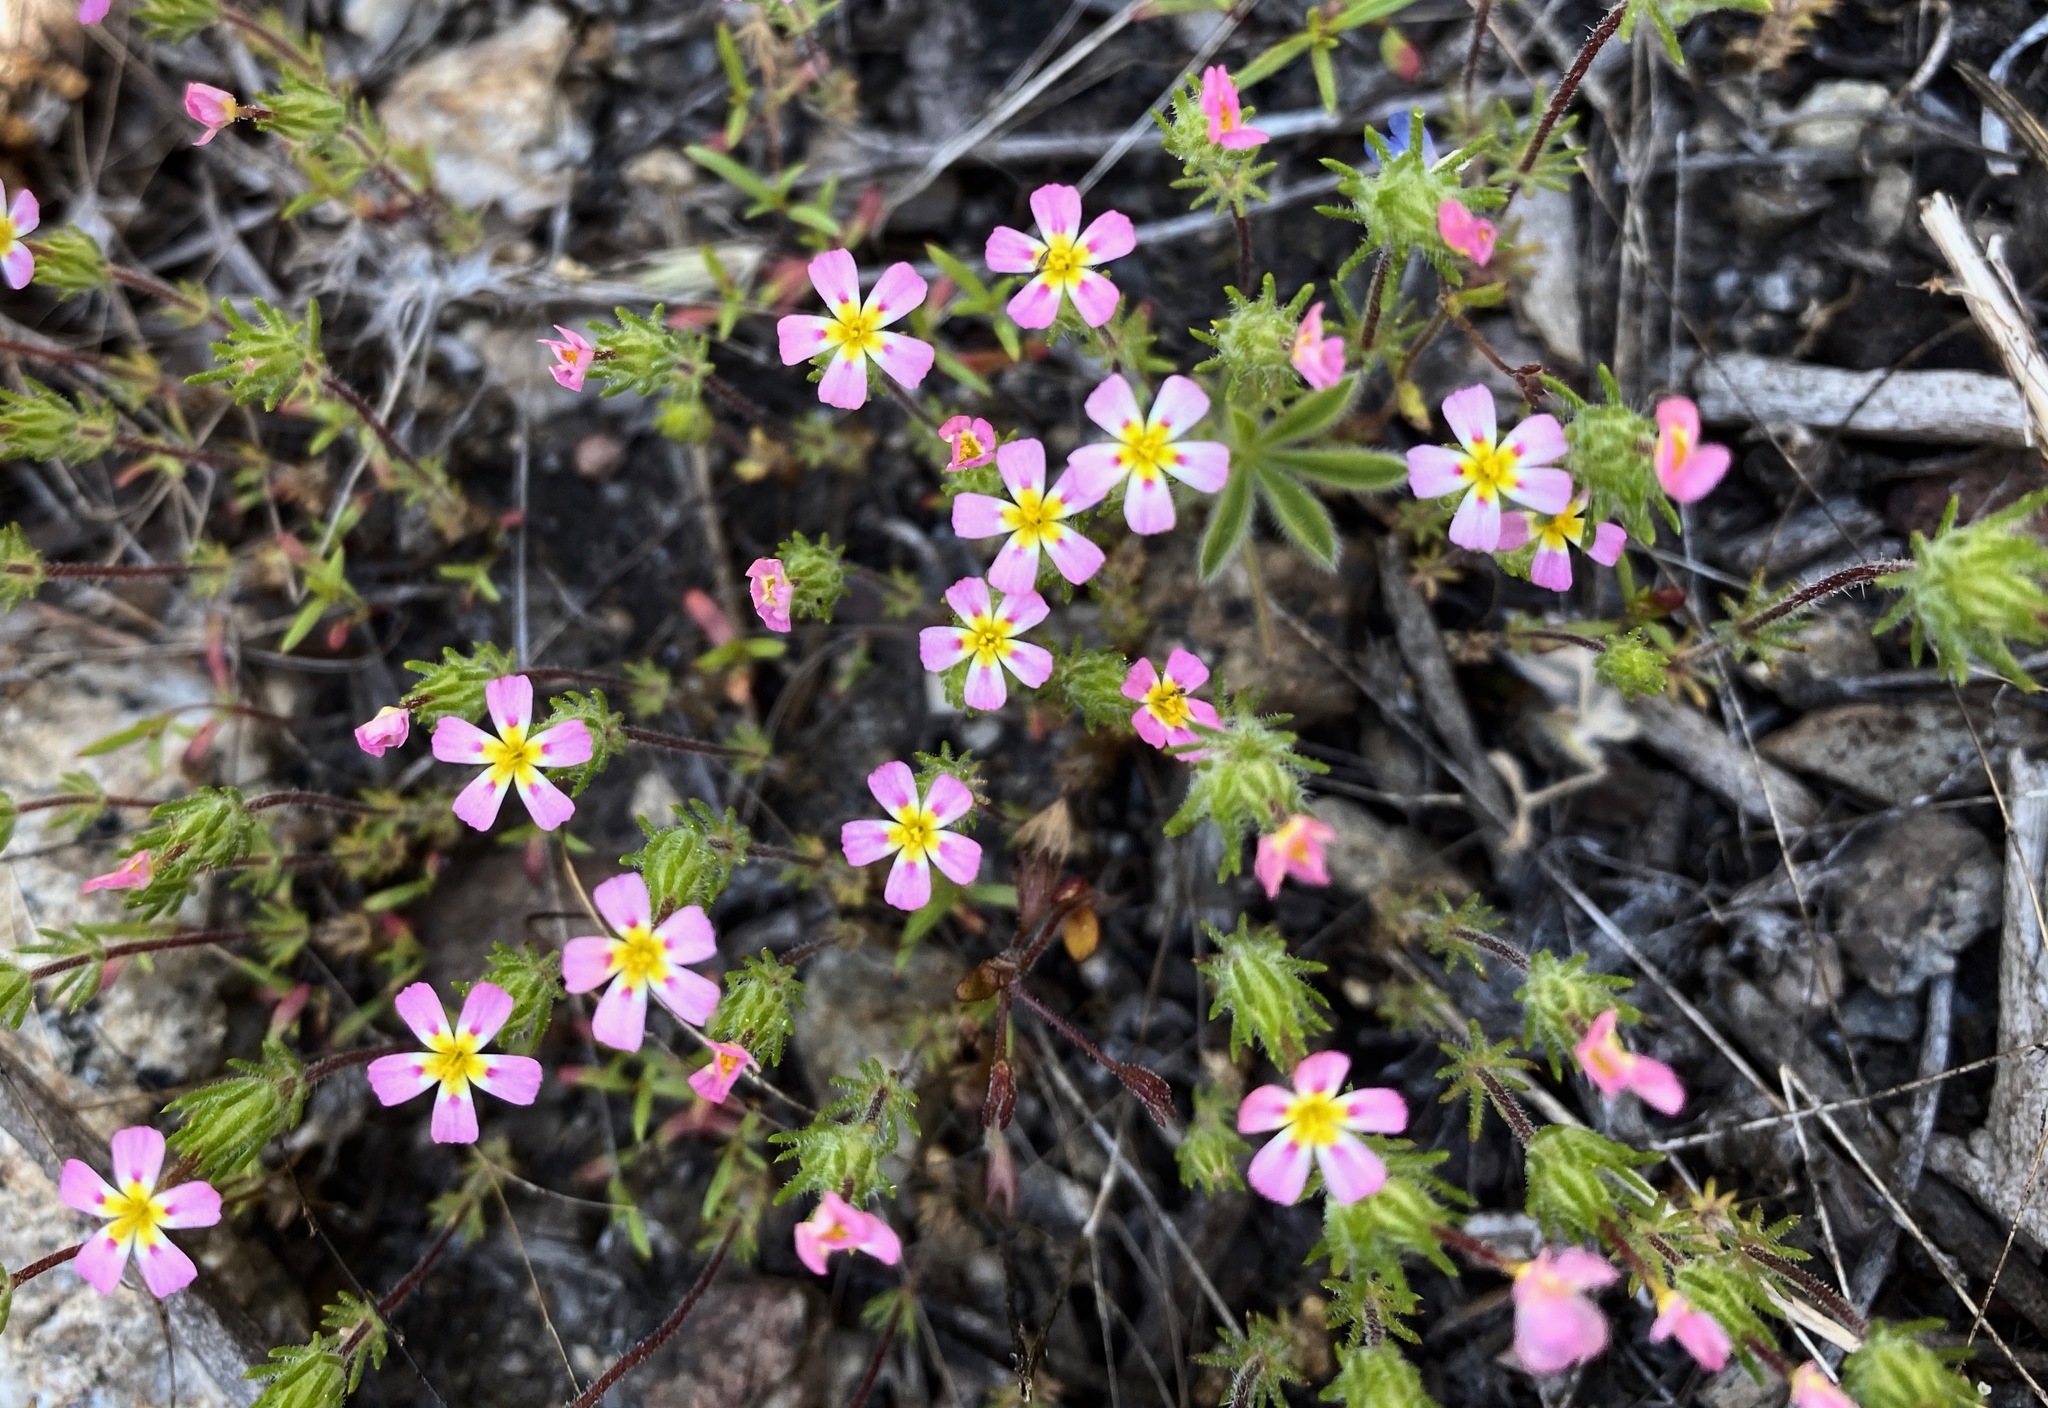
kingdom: Plantae
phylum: Tracheophyta
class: Magnoliopsida
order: Ericales
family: Polemoniaceae
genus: Leptosiphon
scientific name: Leptosiphon ciliatus
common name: Whiskerbrush
